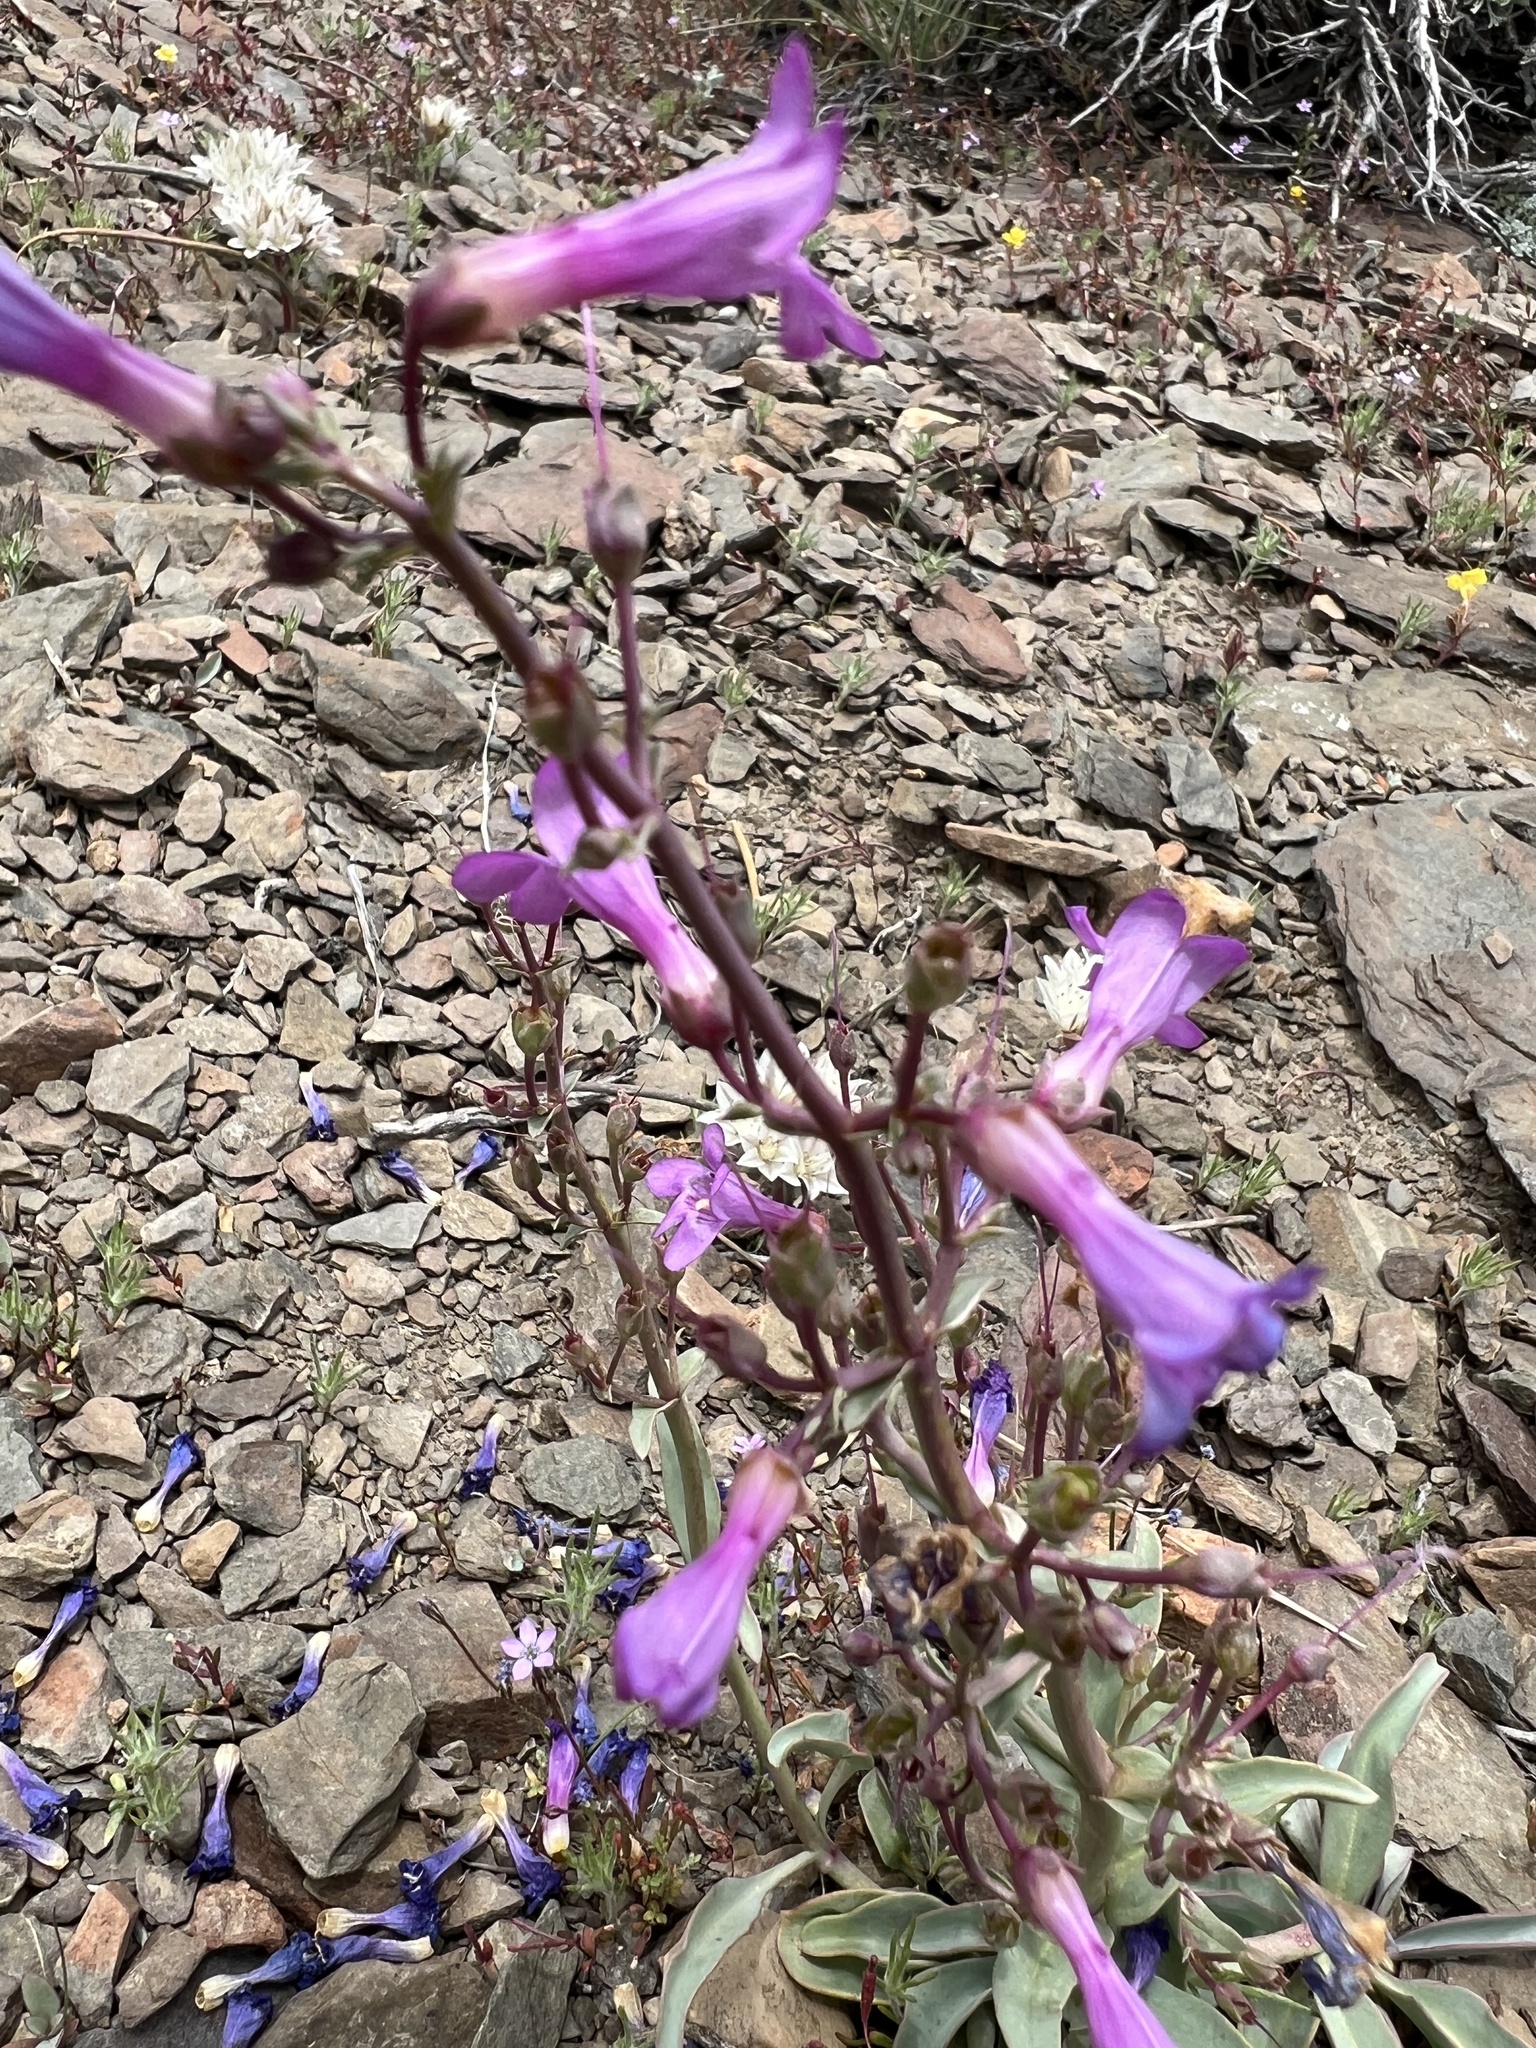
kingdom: Plantae
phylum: Tracheophyta
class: Magnoliopsida
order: Lamiales
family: Plantaginaceae
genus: Penstemon
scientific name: Penstemon patens
